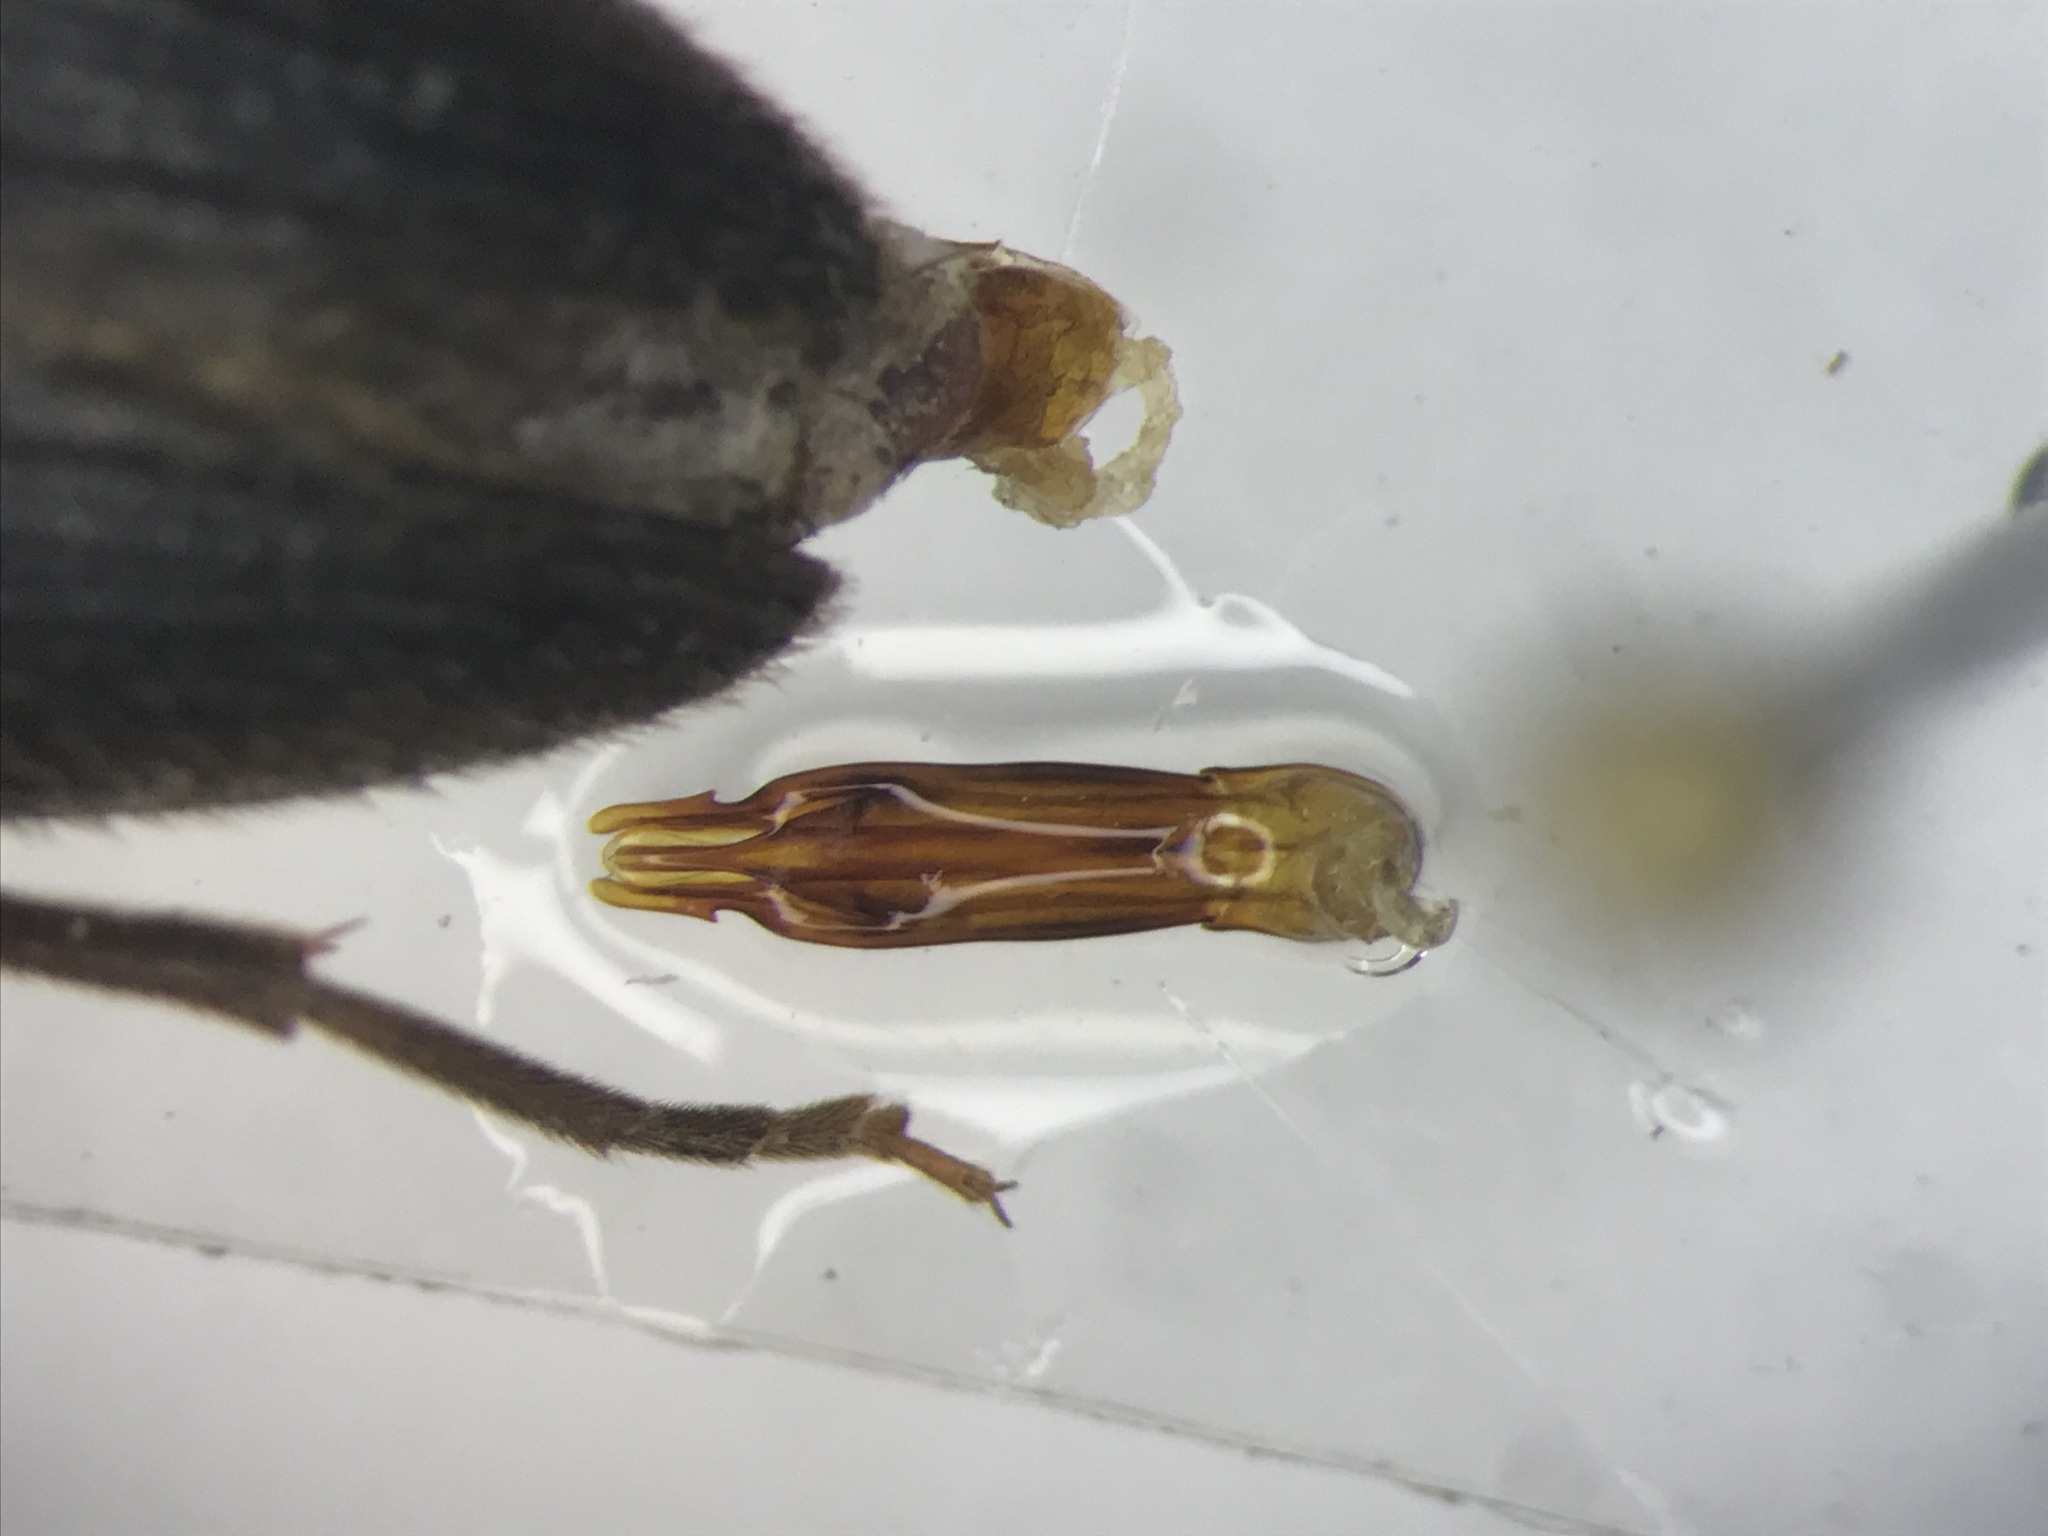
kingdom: Animalia
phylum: Arthropoda
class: Insecta
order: Coleoptera
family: Eucnemidae
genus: Onichodon
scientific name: Onichodon canadensis
